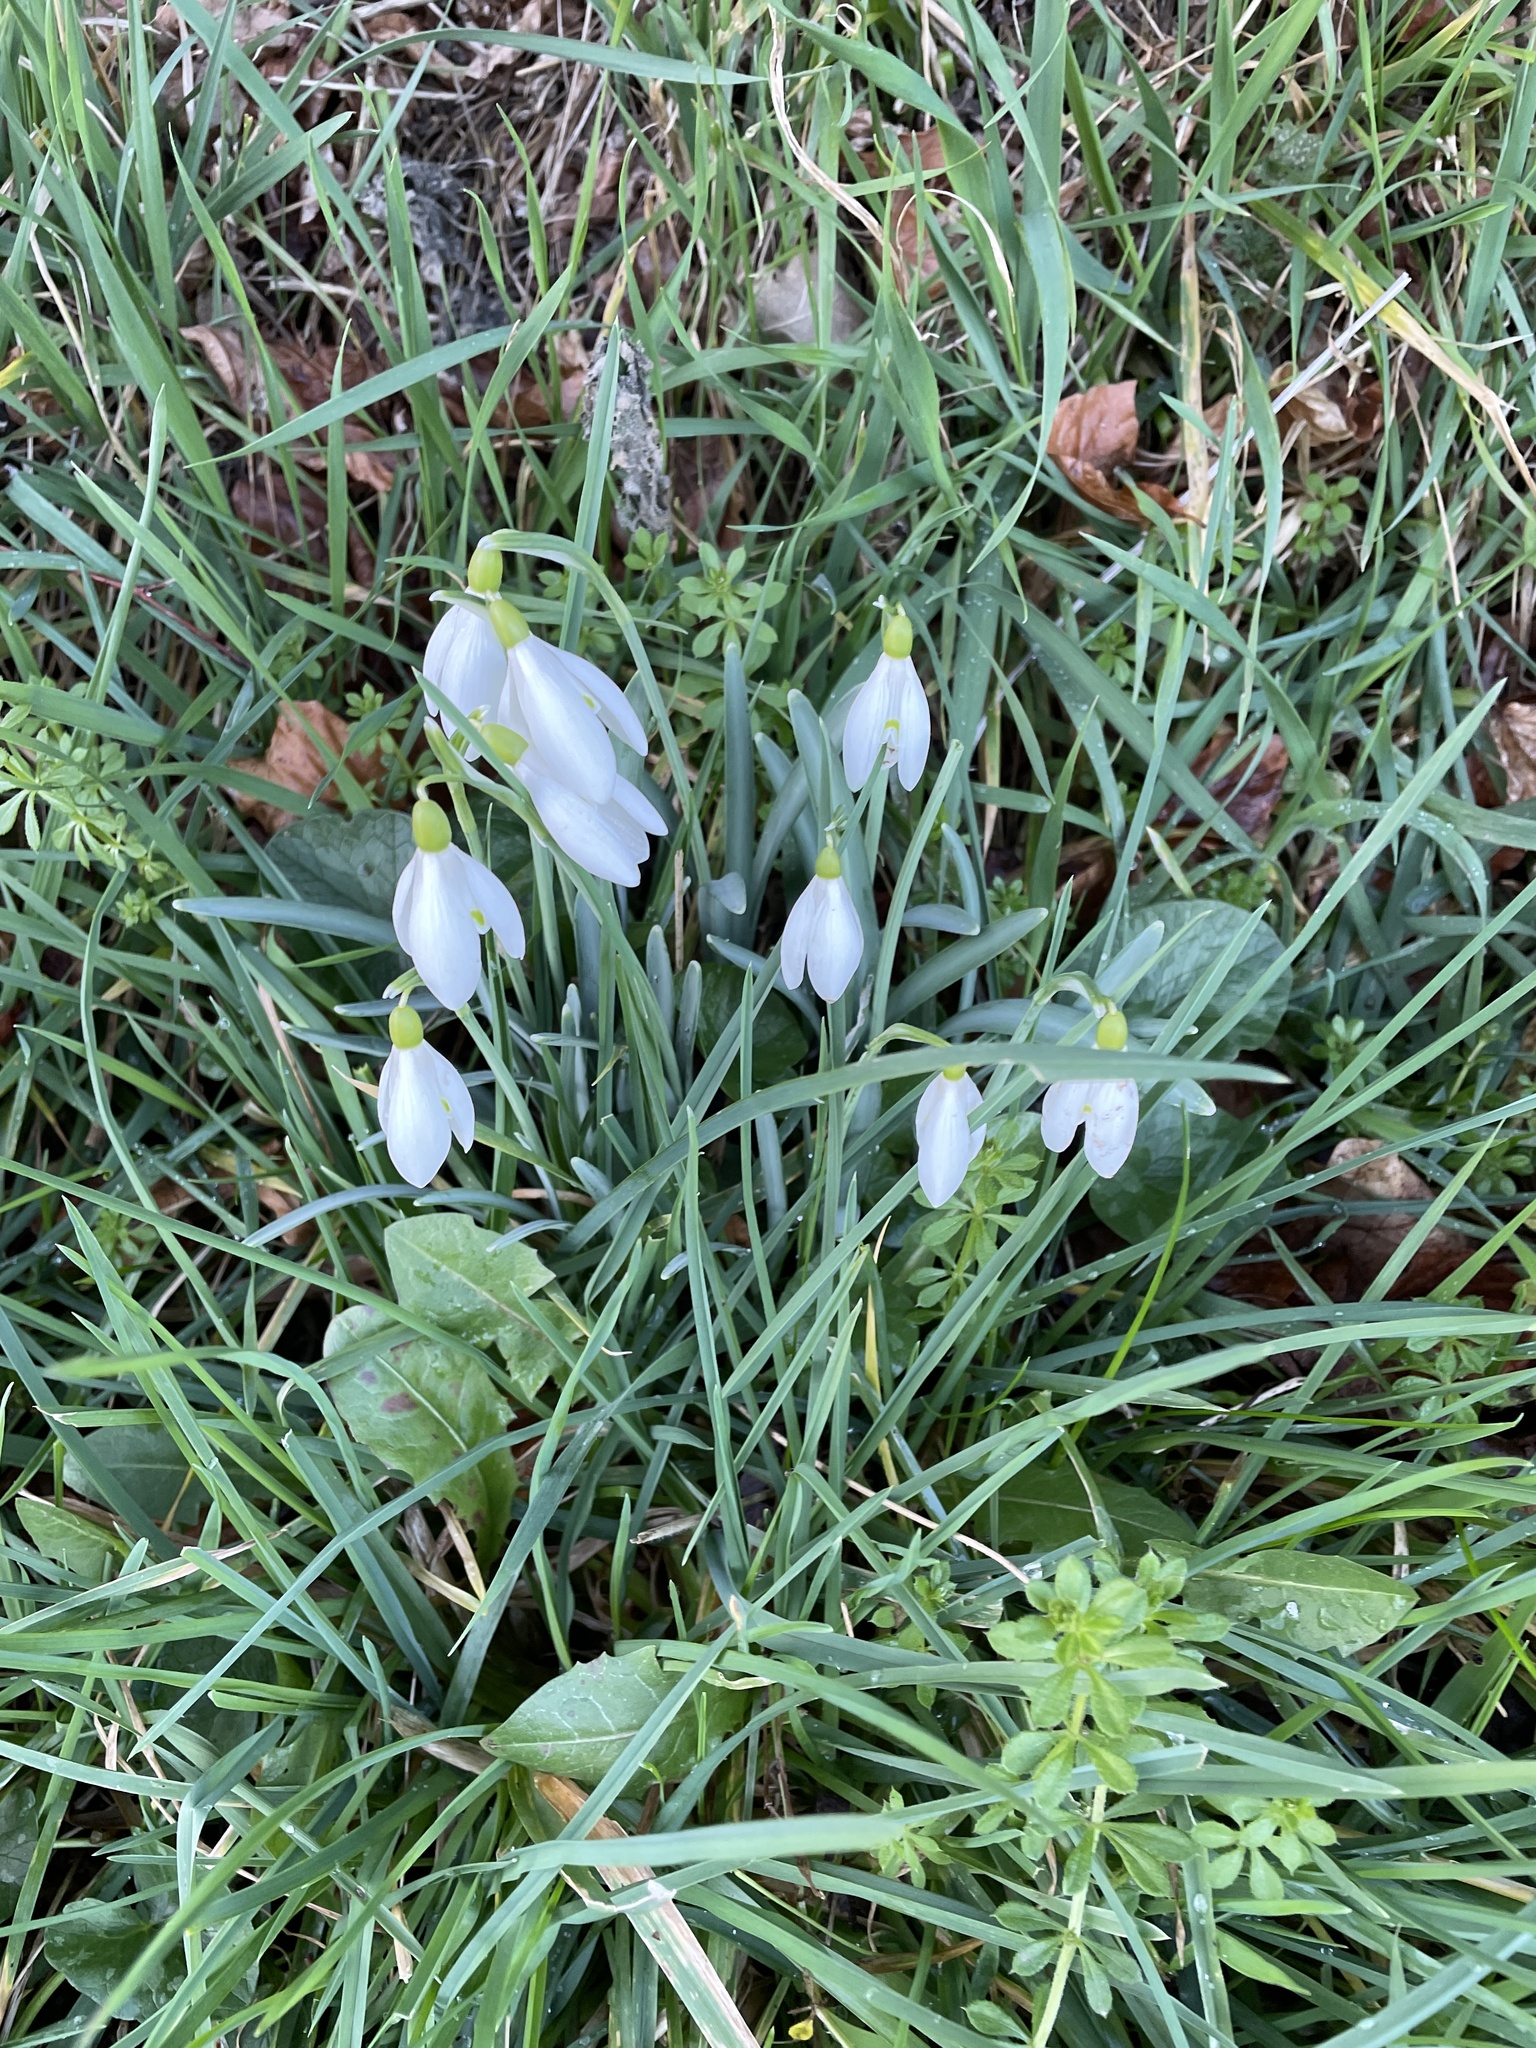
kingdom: Plantae
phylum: Tracheophyta
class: Liliopsida
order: Asparagales
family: Amaryllidaceae
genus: Galanthus
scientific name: Galanthus nivalis
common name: Snowdrop
